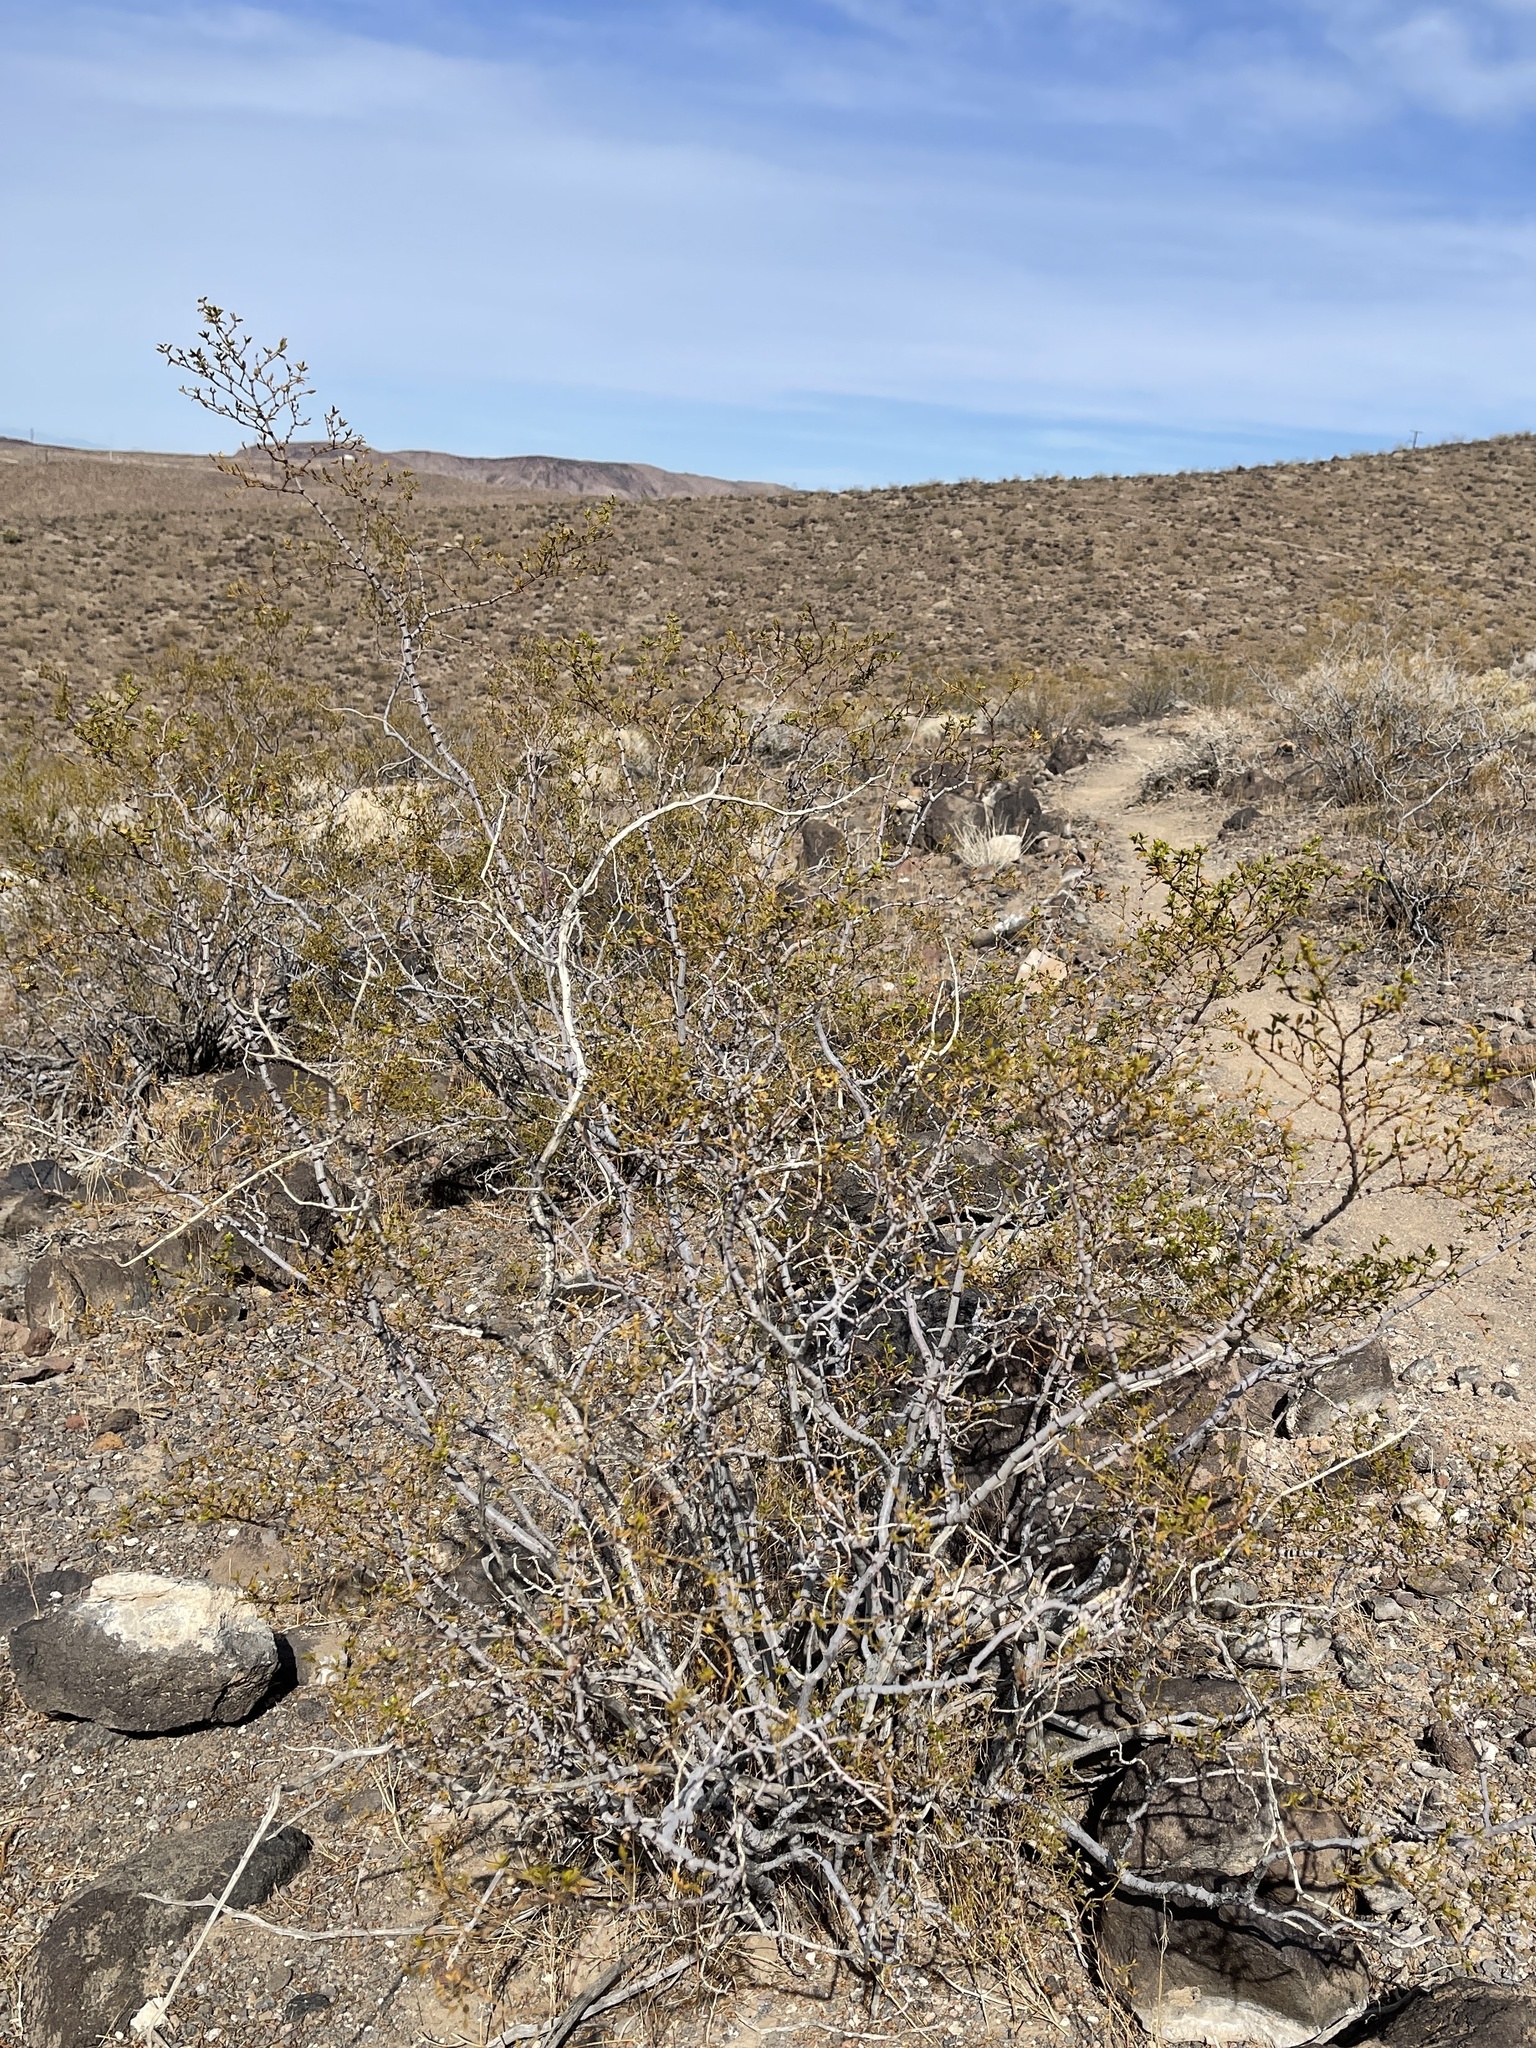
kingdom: Plantae
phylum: Tracheophyta
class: Magnoliopsida
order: Zygophyllales
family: Zygophyllaceae
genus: Larrea
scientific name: Larrea tridentata
